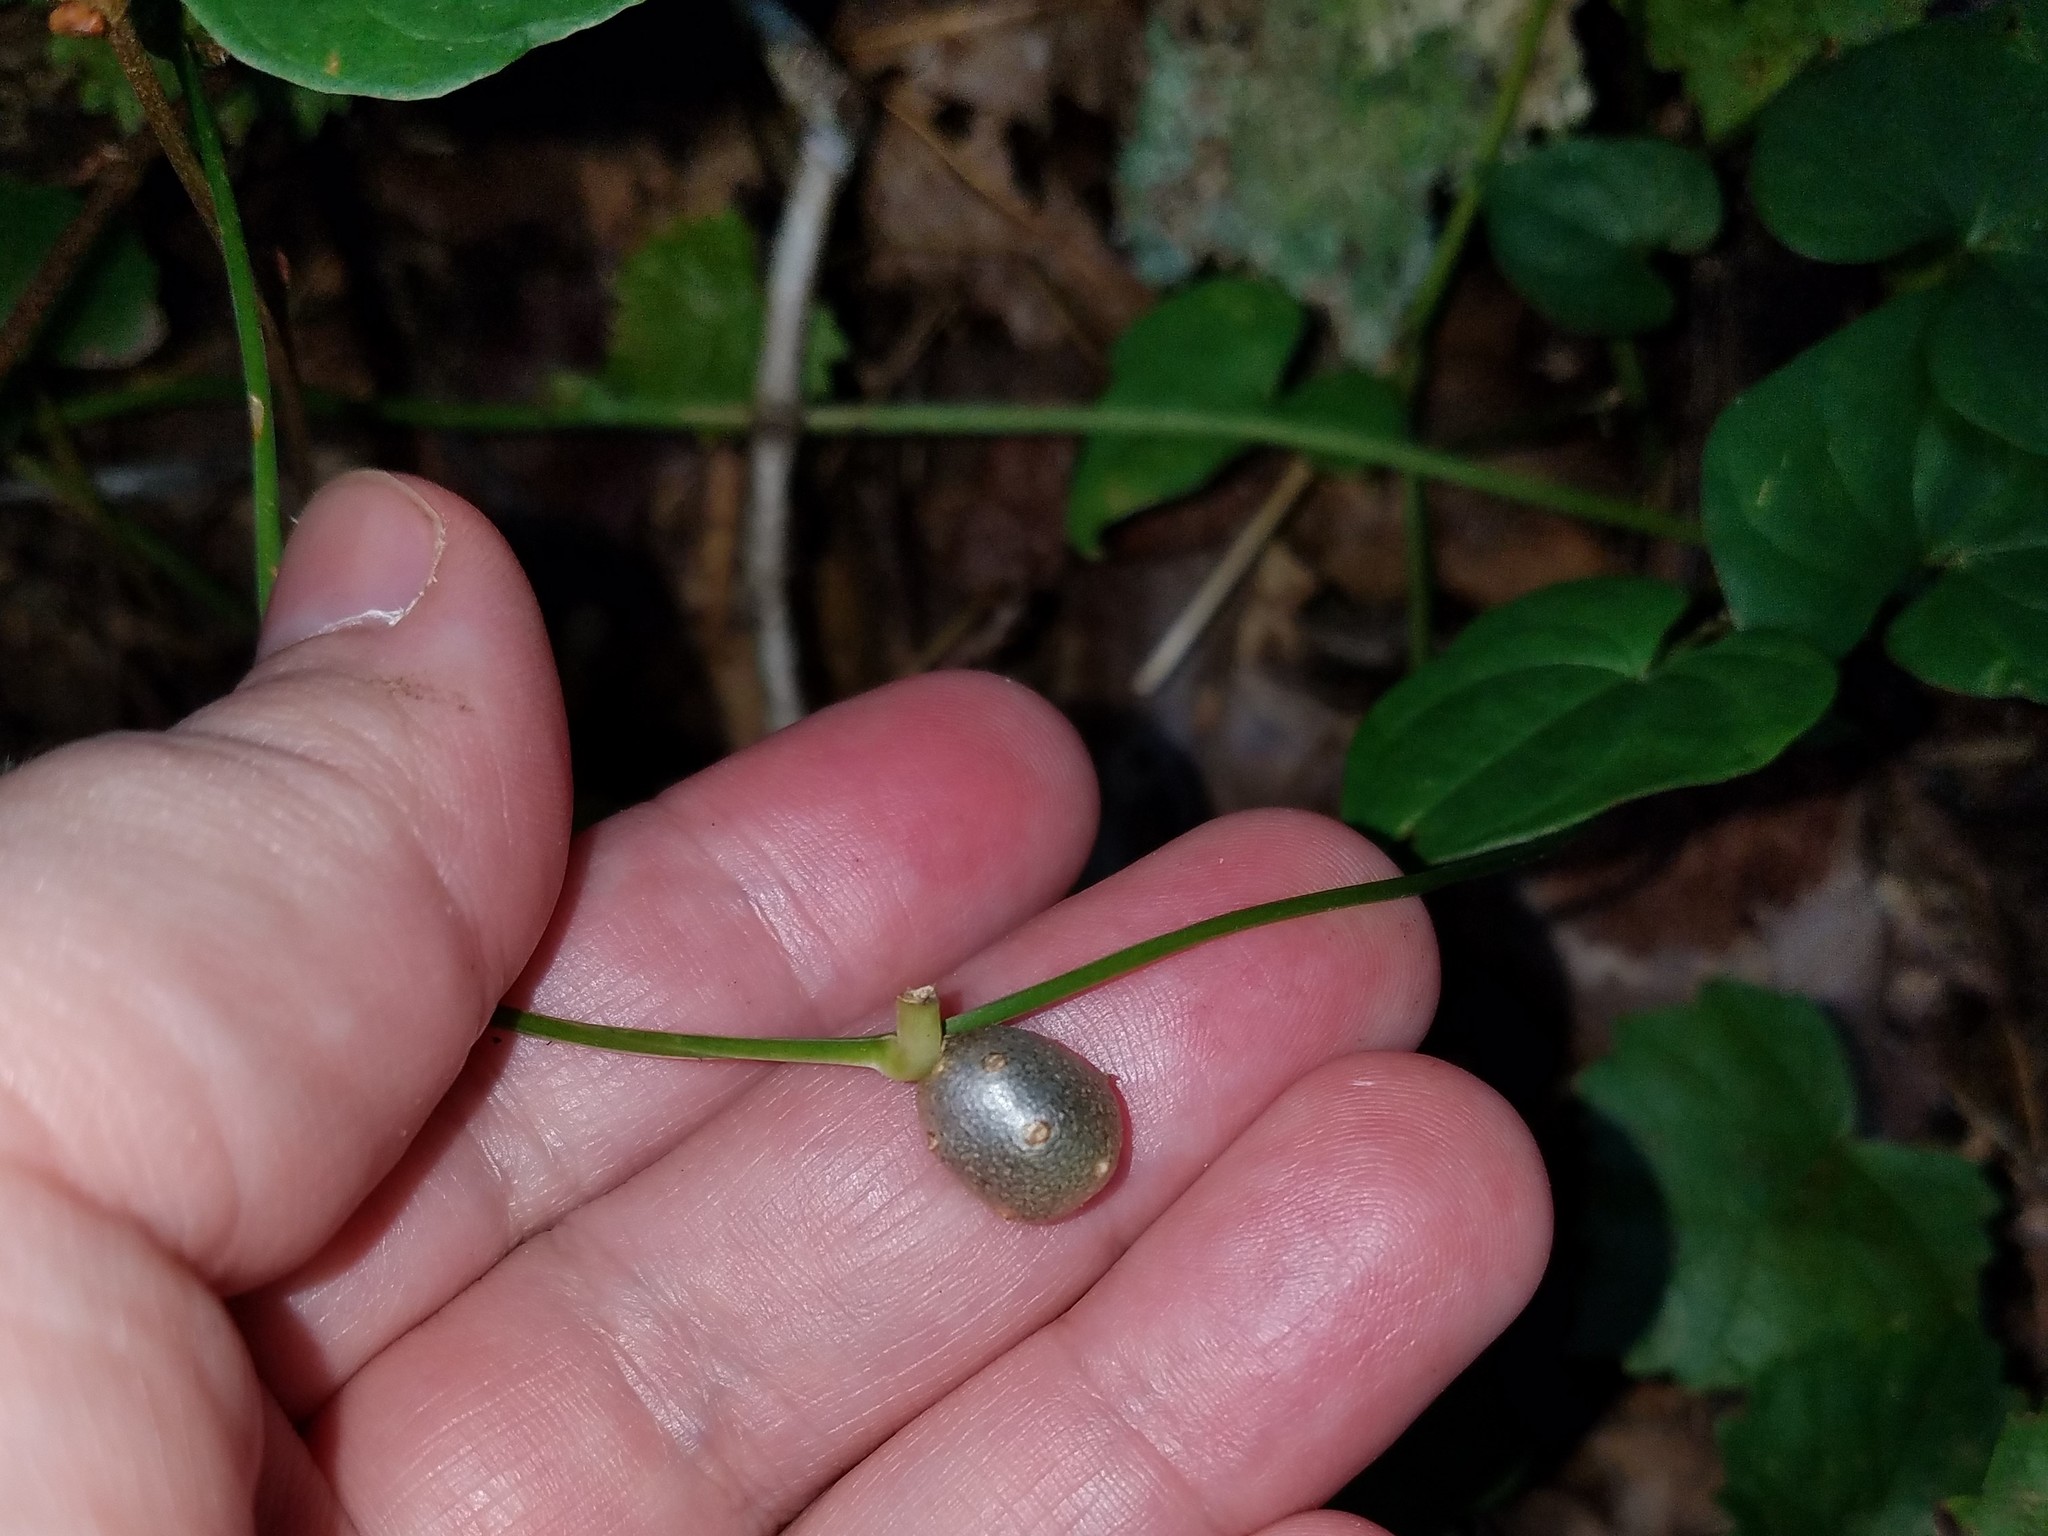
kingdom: Plantae
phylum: Tracheophyta
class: Liliopsida
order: Dioscoreales
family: Dioscoreaceae
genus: Dioscorea
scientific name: Dioscorea polystachya
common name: Chinese yam
